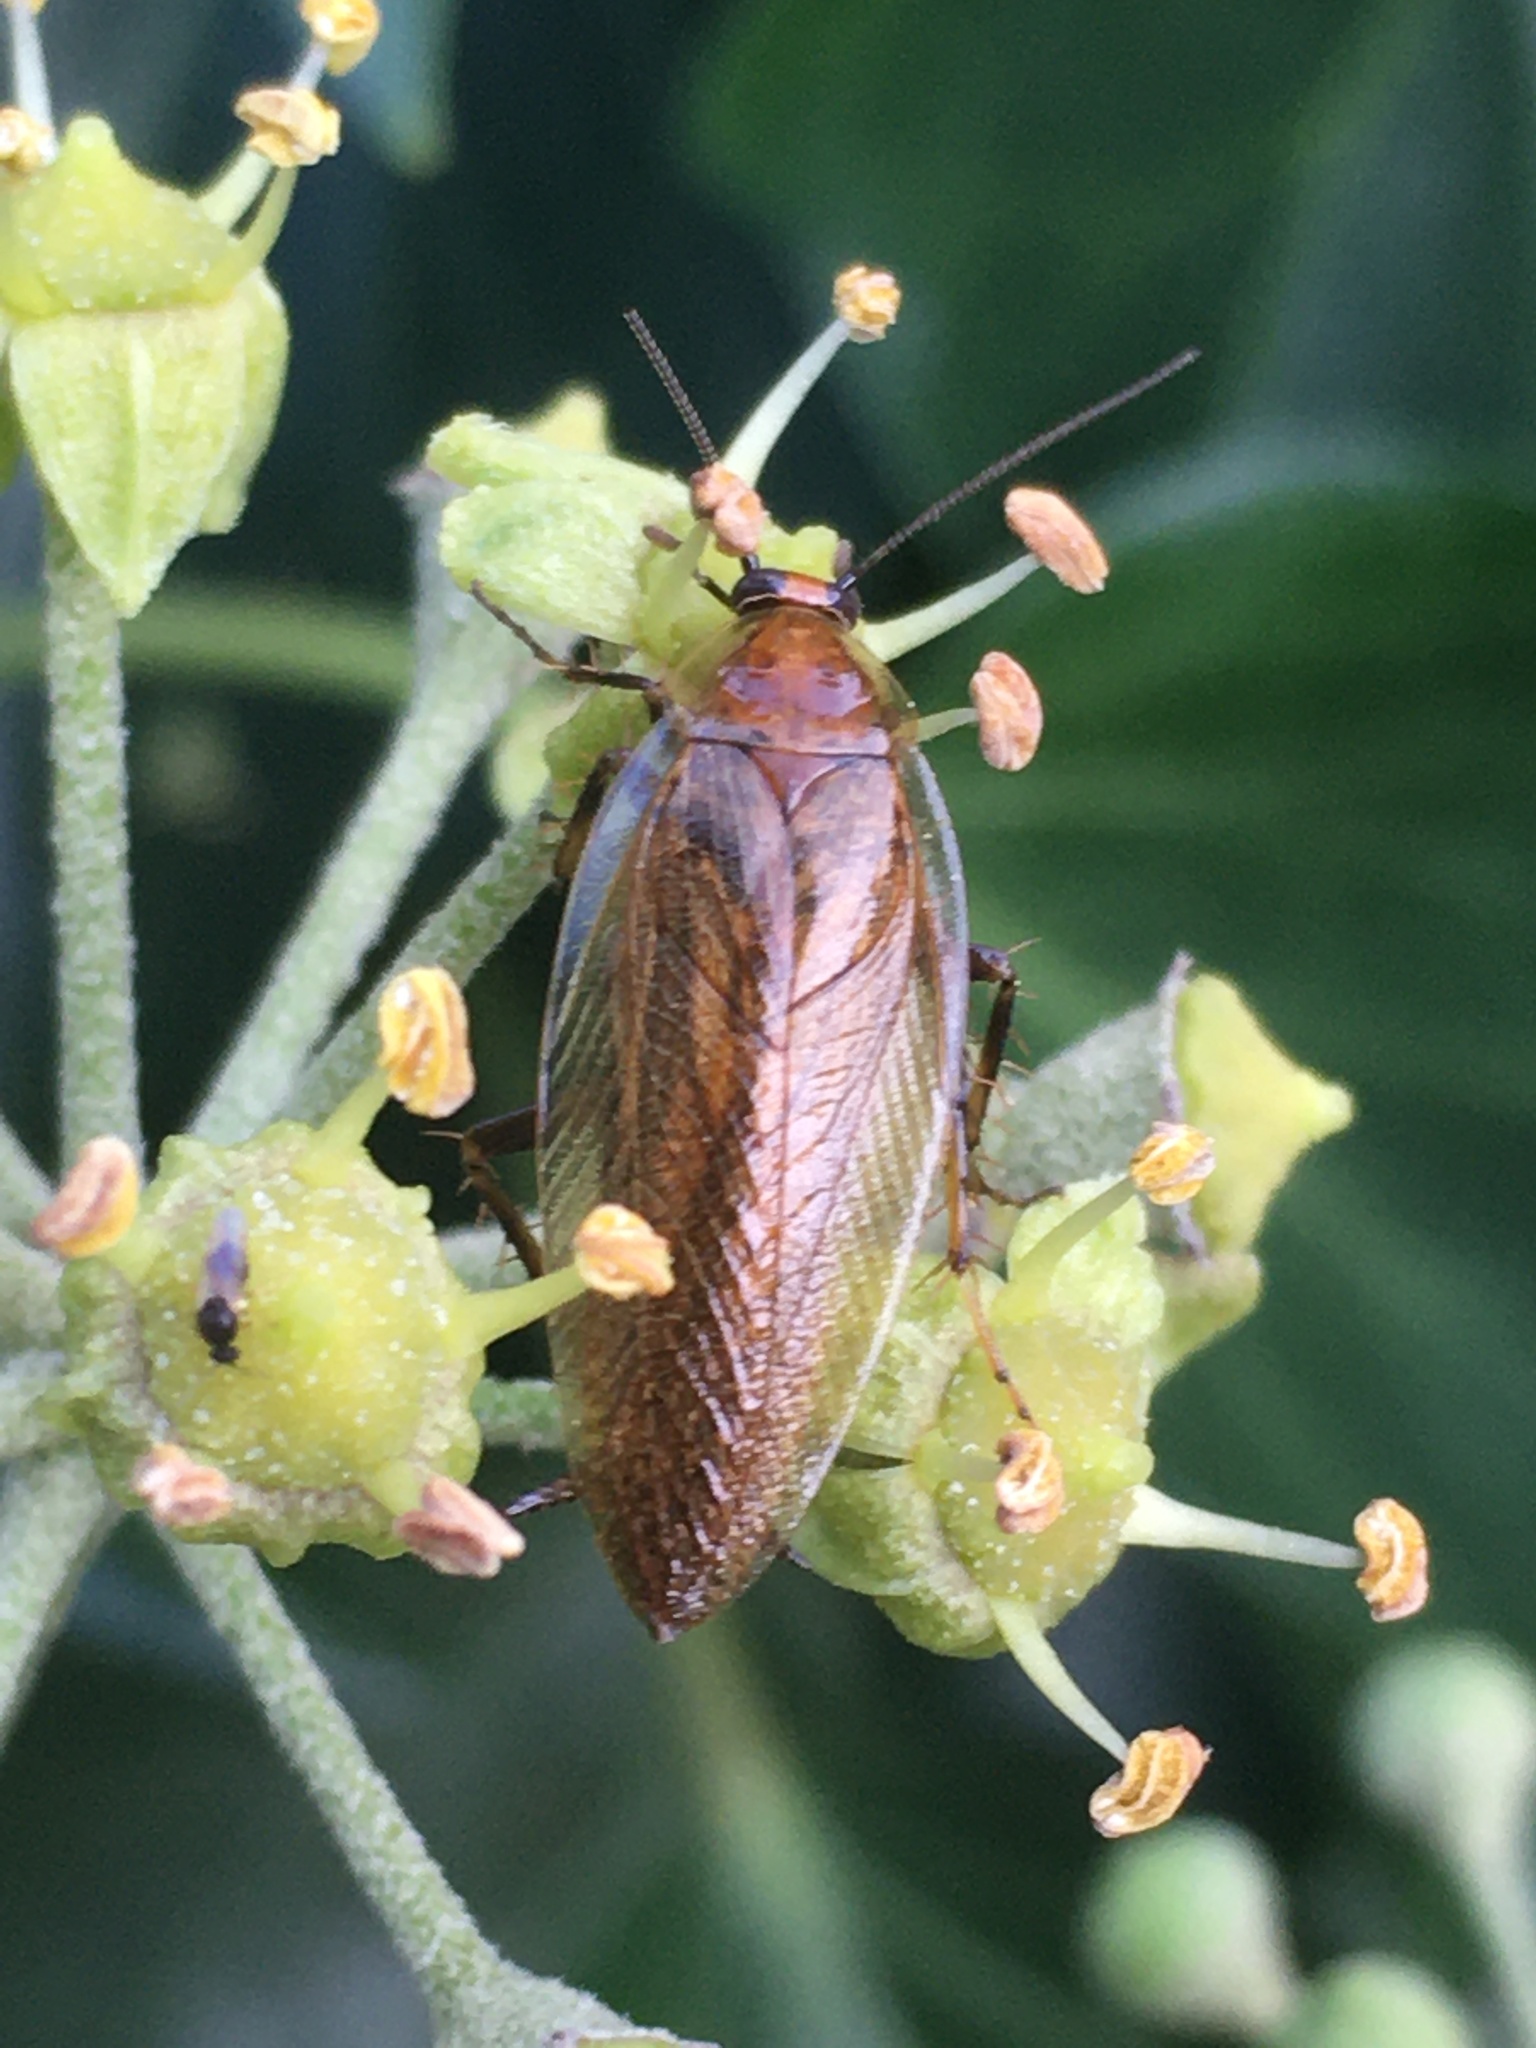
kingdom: Animalia
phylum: Arthropoda
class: Insecta
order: Blattodea
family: Ectobiidae
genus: Ectobius
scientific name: Ectobius vittiventris
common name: Garden cockroach
